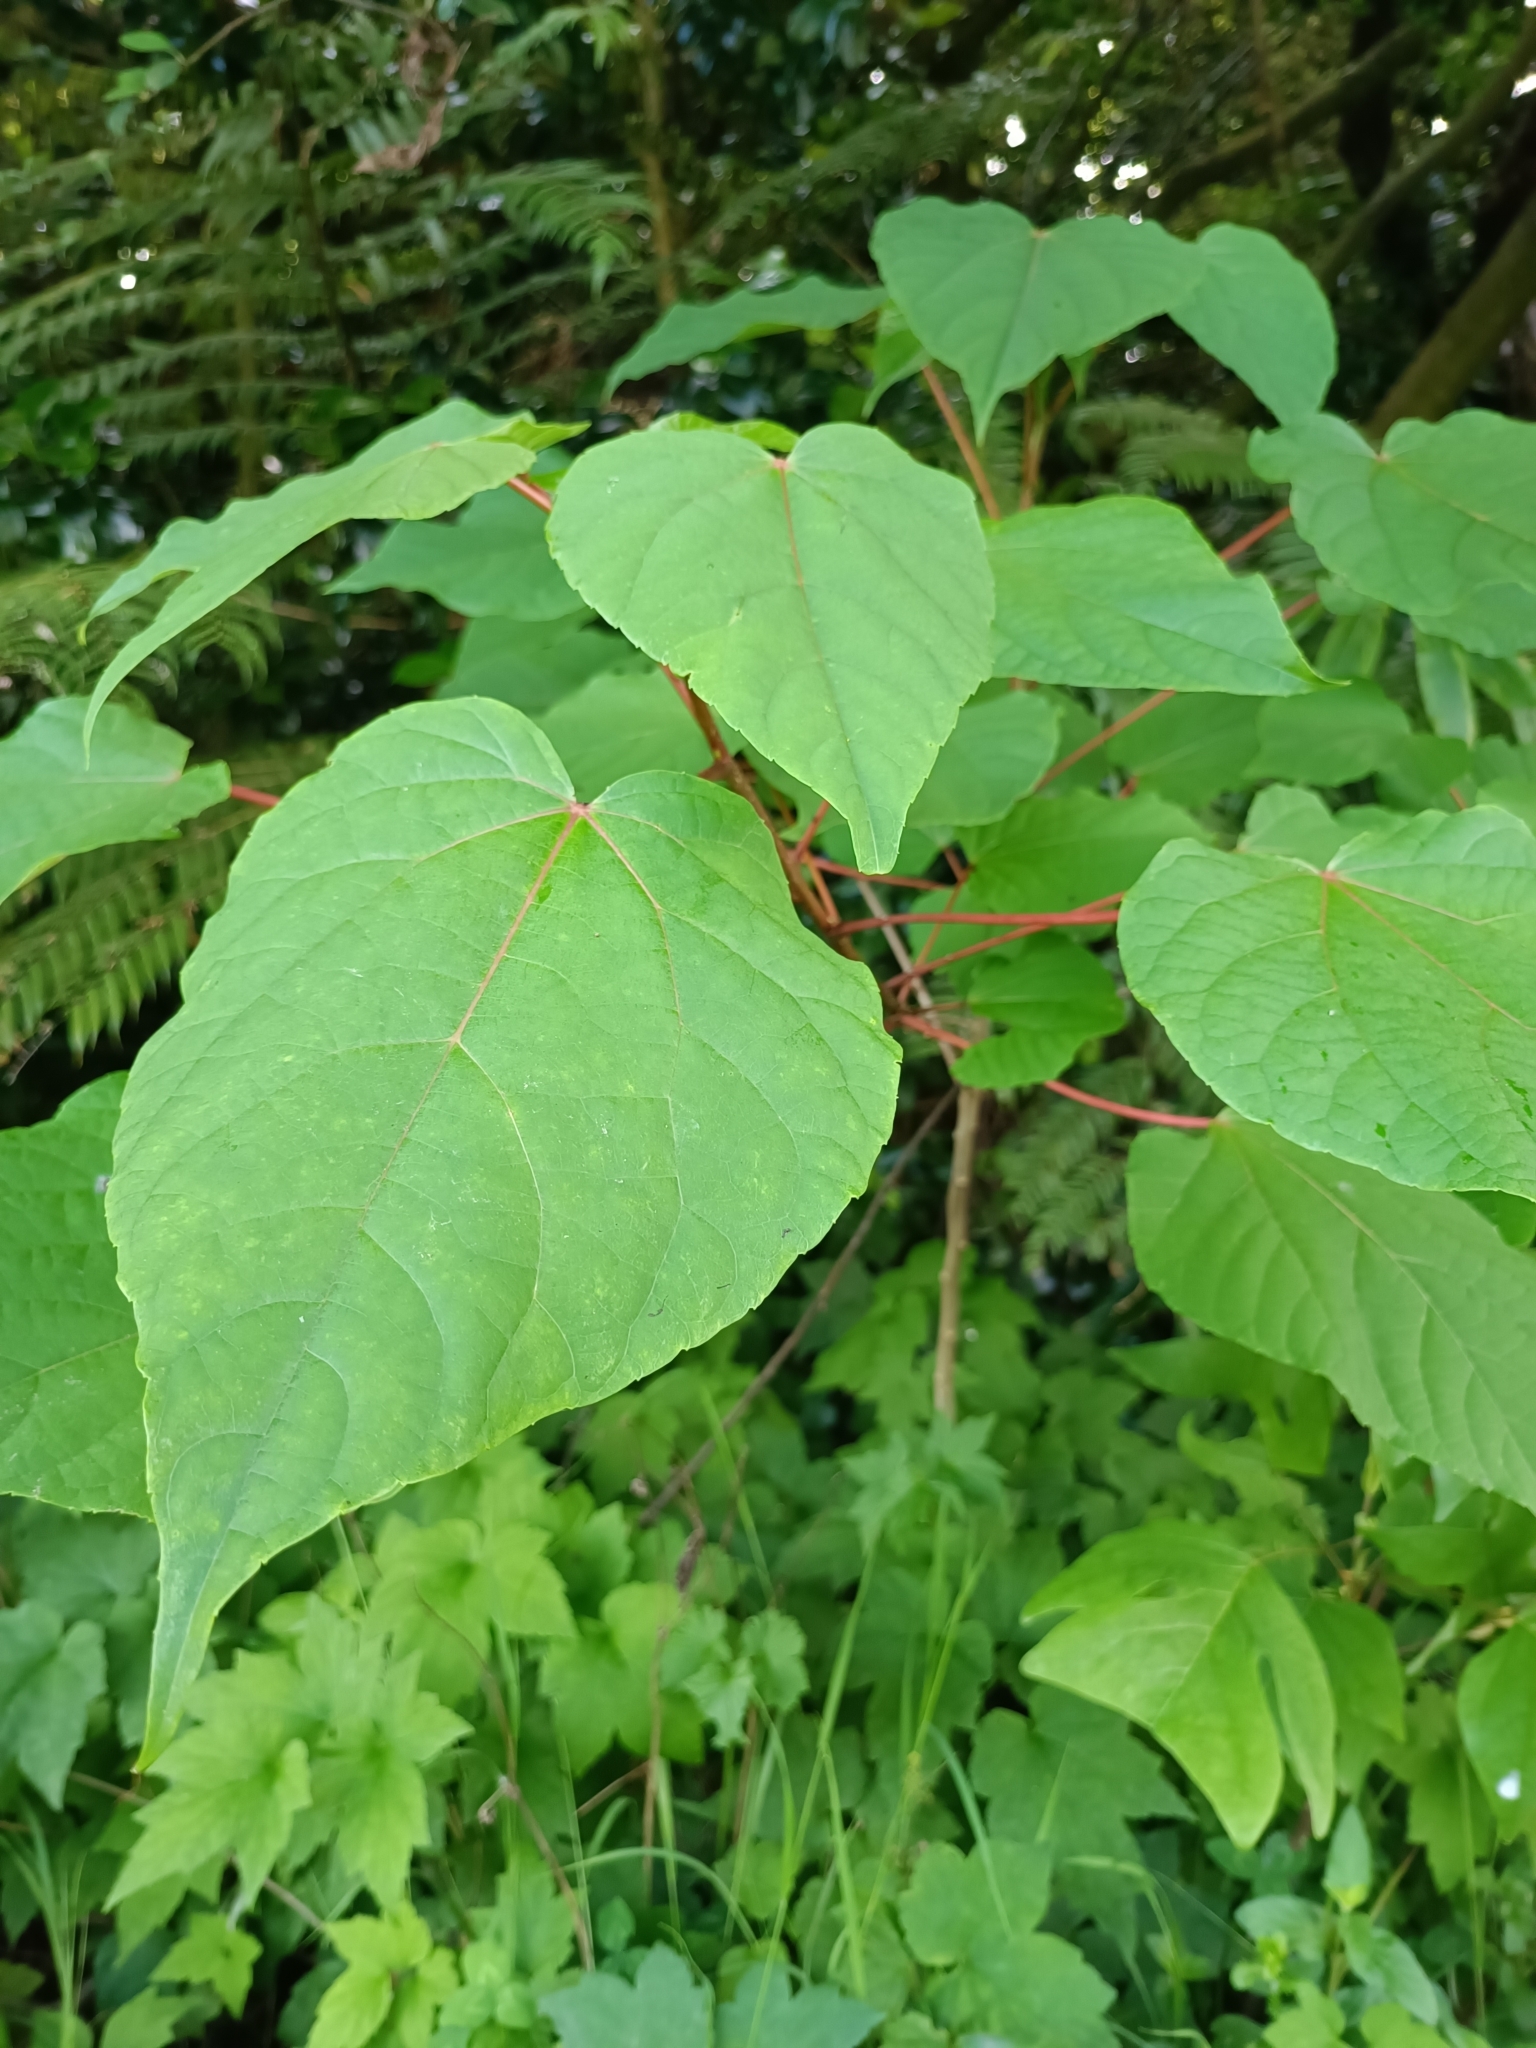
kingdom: Plantae
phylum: Tracheophyta
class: Magnoliopsida
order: Malpighiales
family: Salicaceae
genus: Idesia
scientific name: Idesia polycarpa
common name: Idesia tree
